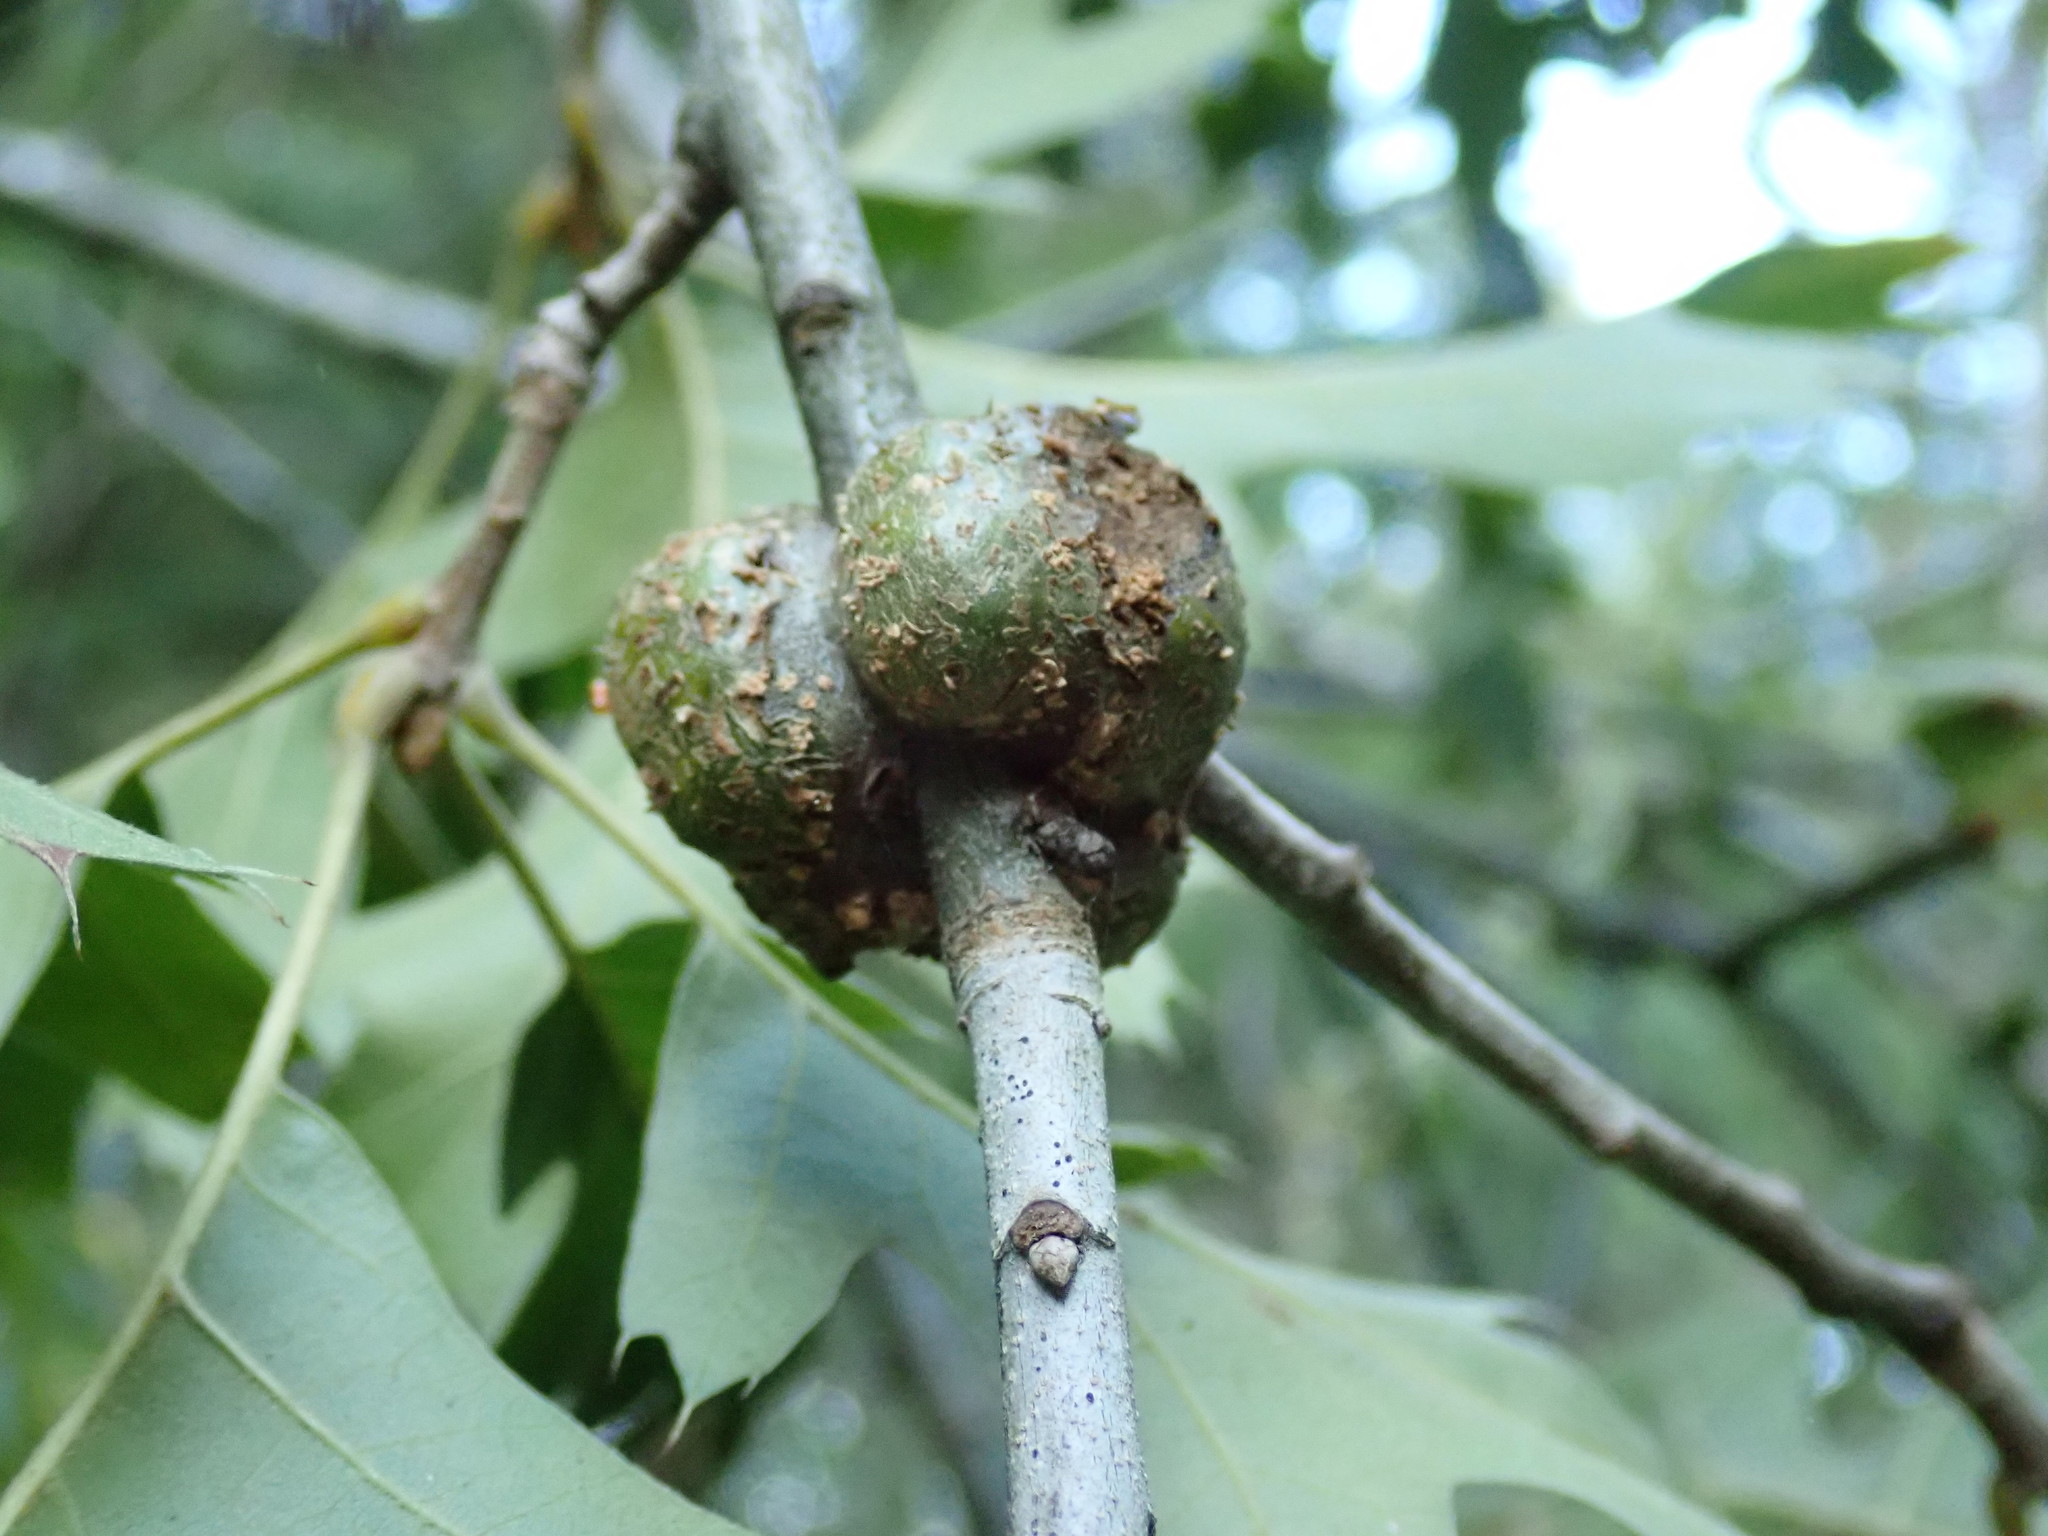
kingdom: Animalia
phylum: Arthropoda
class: Insecta
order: Hymenoptera
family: Cynipidae
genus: Callirhytis
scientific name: Callirhytis
